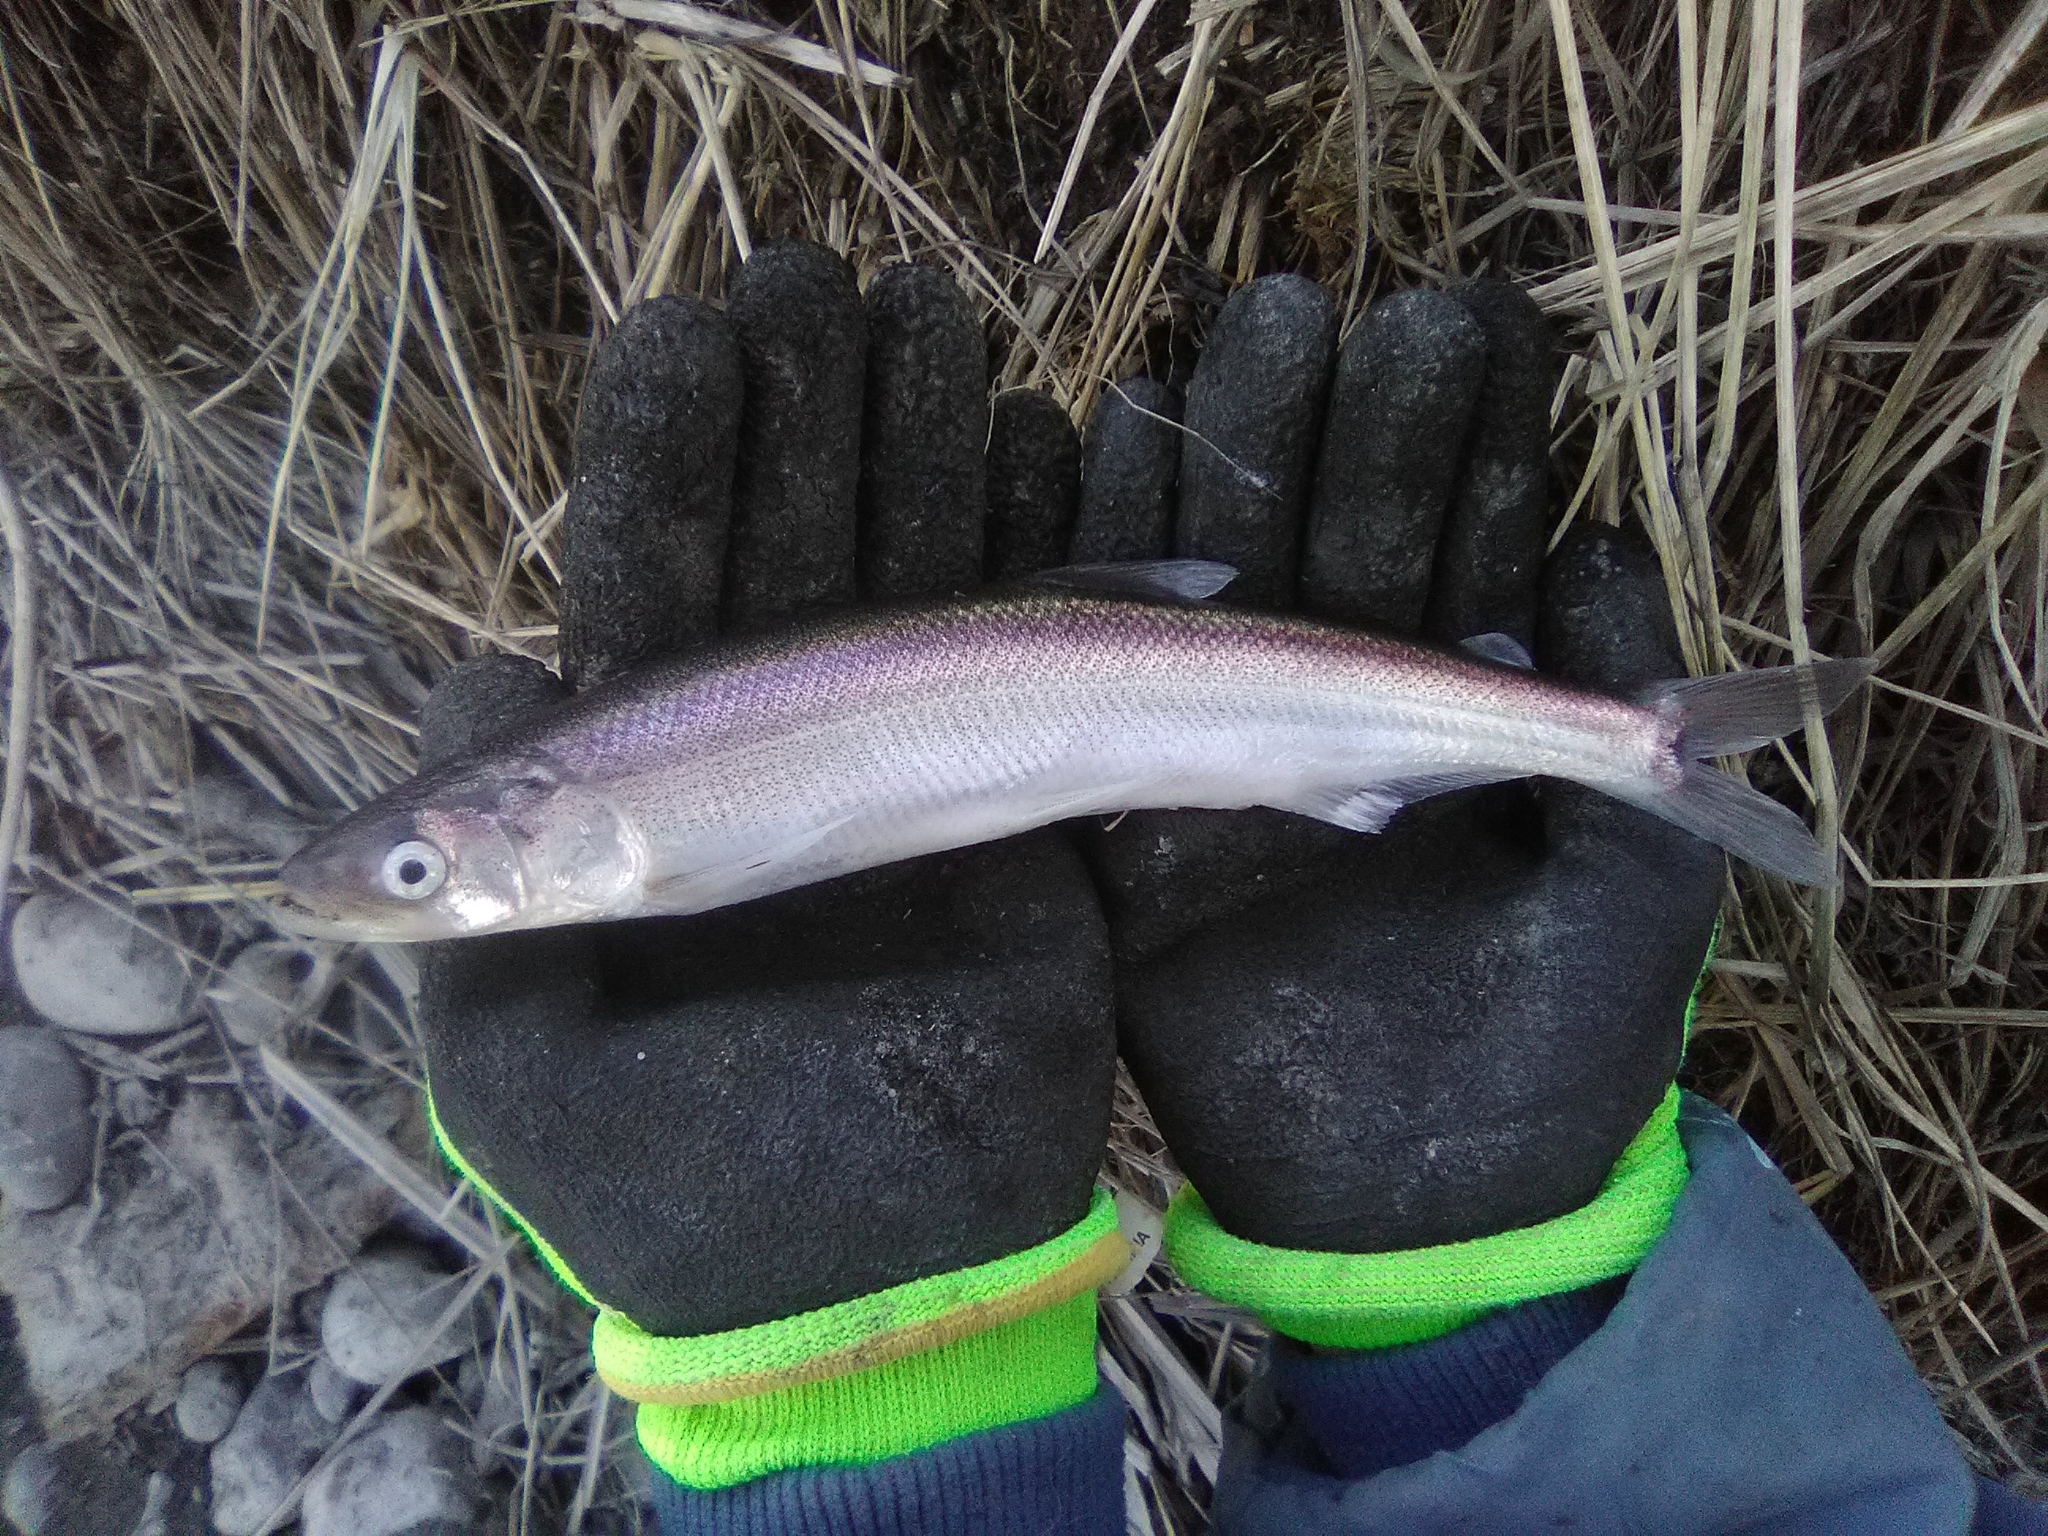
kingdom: Animalia
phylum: Chordata
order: Osmeriformes
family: Osmeridae
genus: Thaleichthys
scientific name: Thaleichthys pacificus
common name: Eulachon
